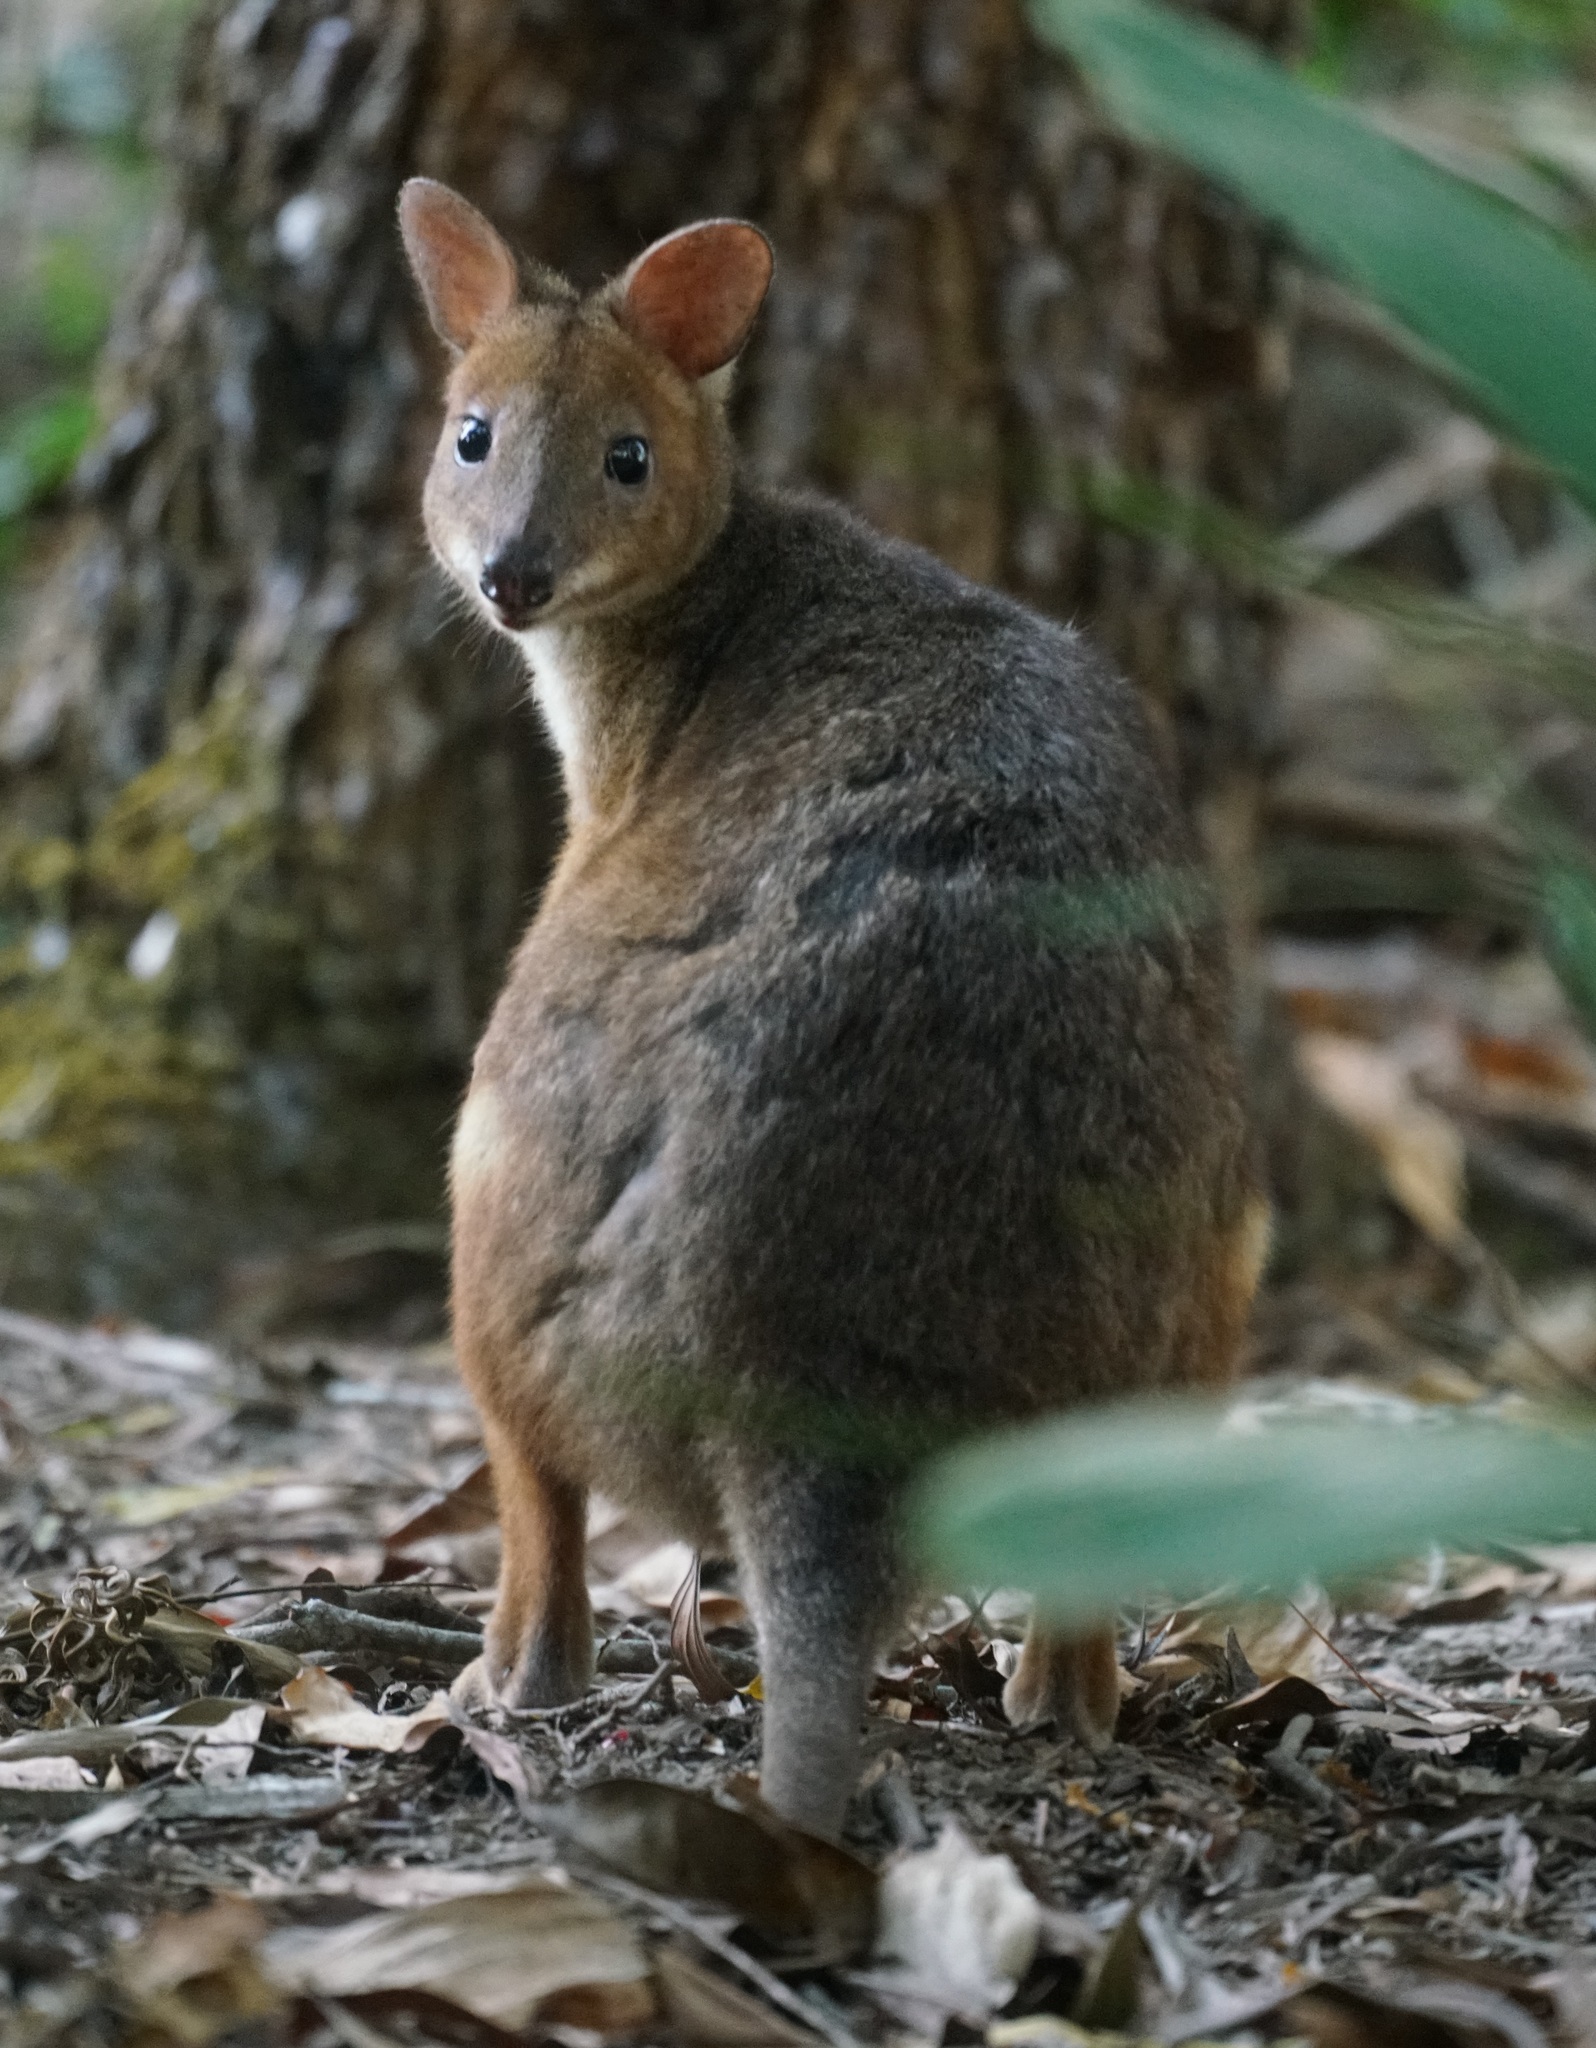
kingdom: Animalia
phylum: Chordata
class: Mammalia
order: Diprotodontia
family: Macropodidae
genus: Thylogale
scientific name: Thylogale stigmatica
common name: Red-legged pademelon
